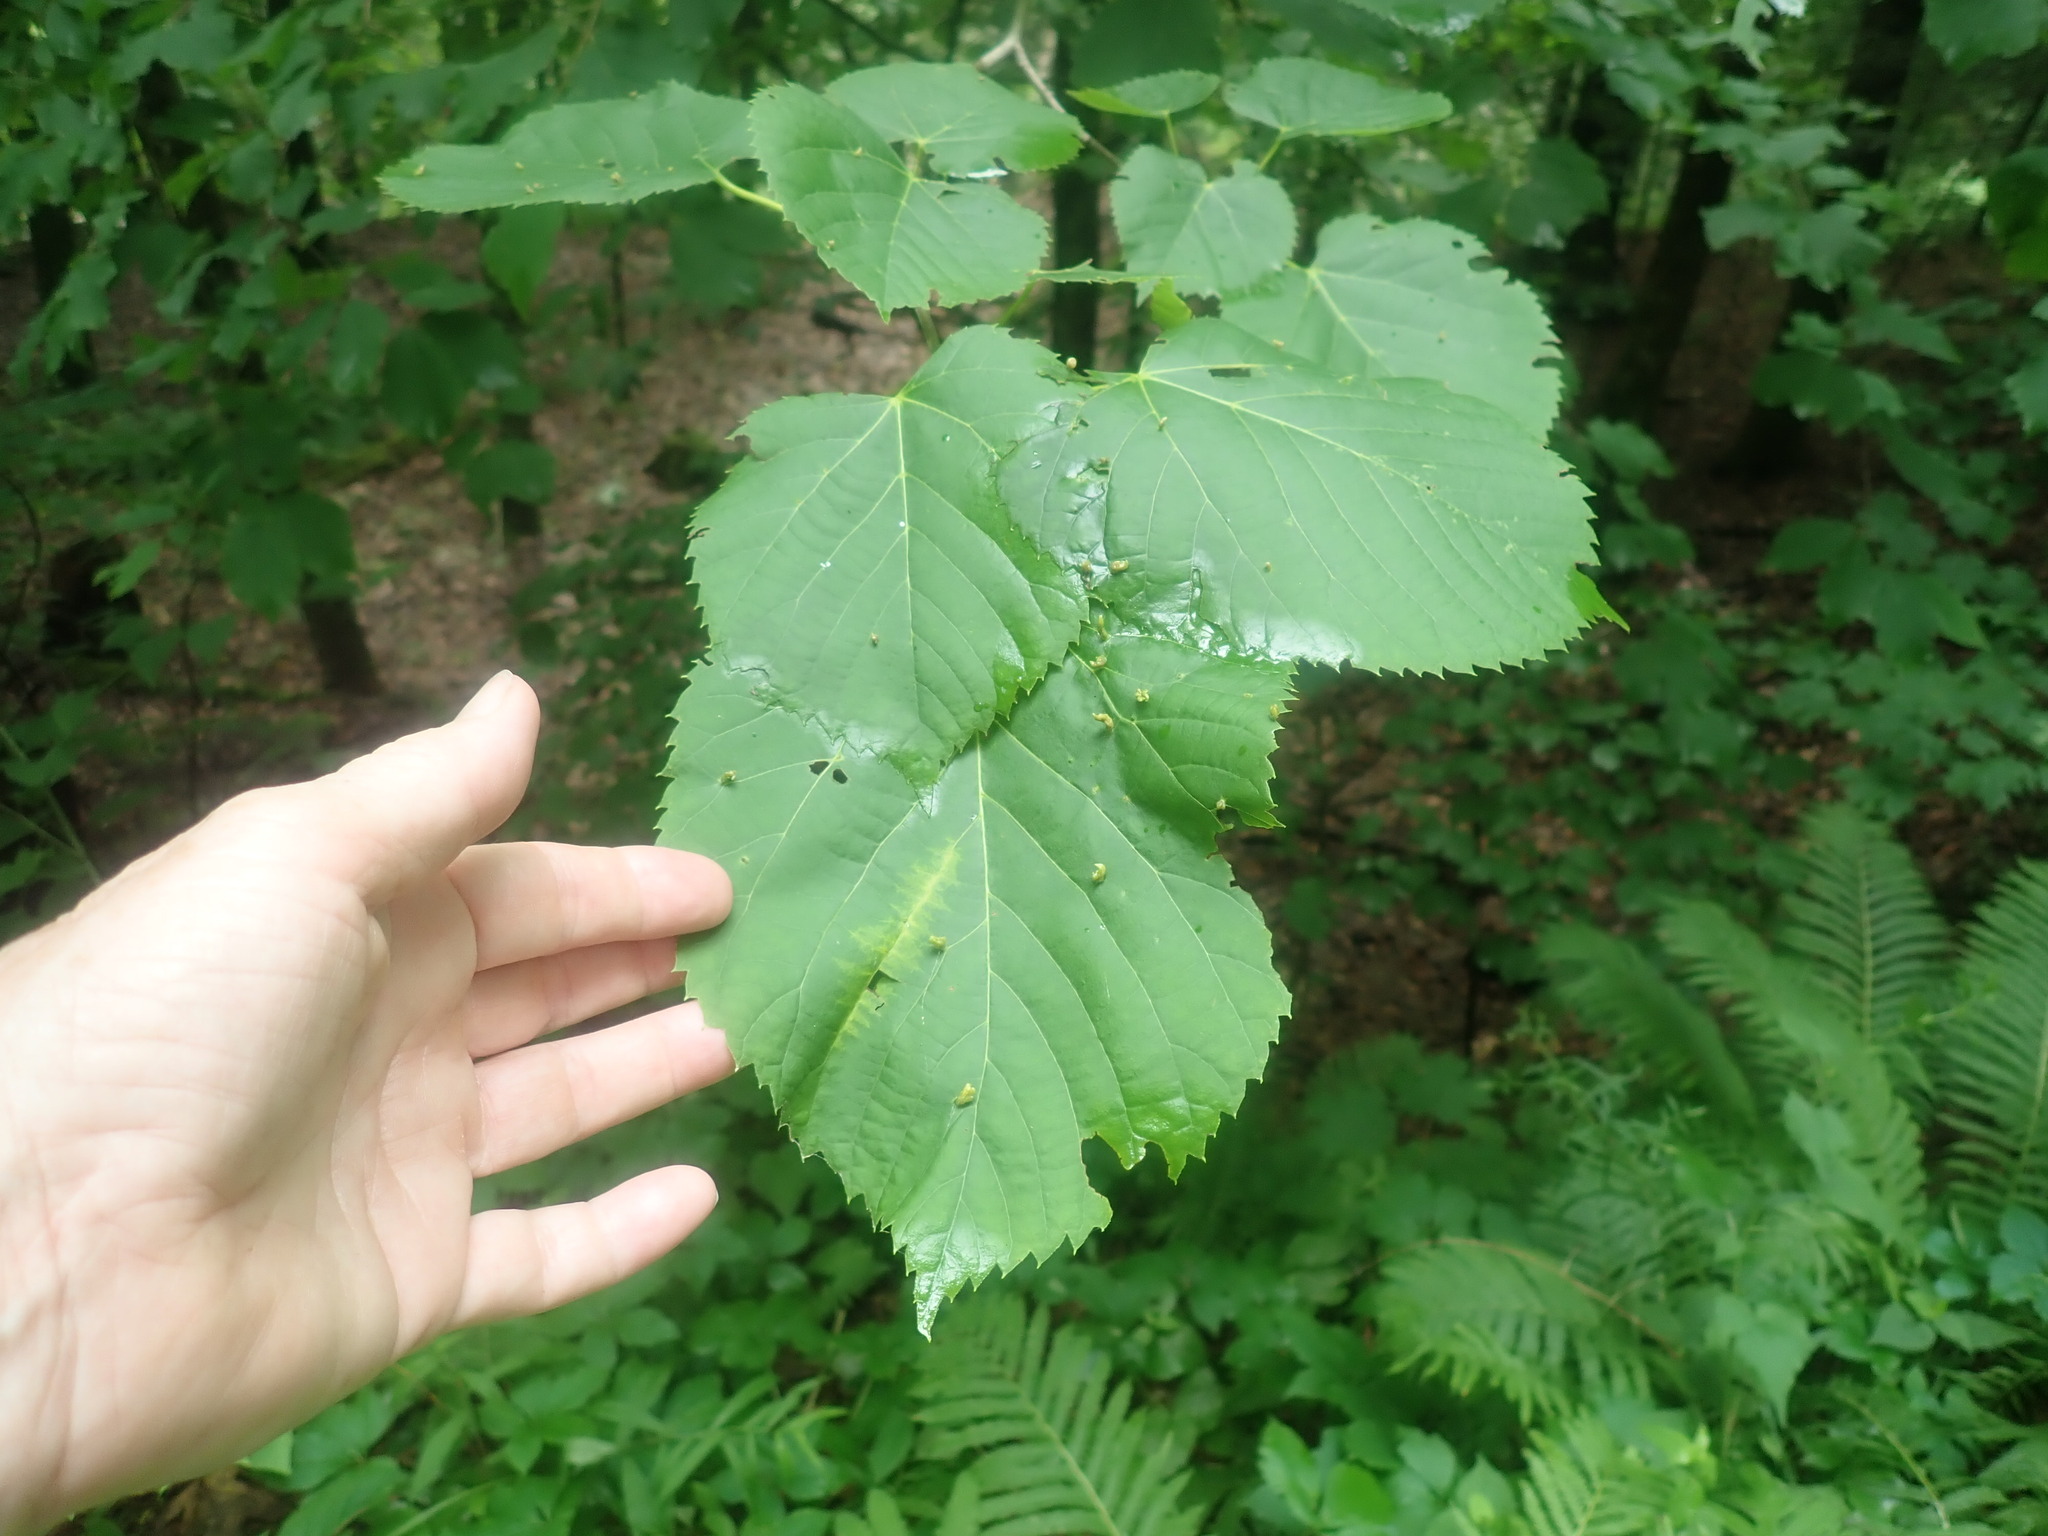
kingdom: Plantae
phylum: Tracheophyta
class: Magnoliopsida
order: Malvales
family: Malvaceae
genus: Tilia
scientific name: Tilia americana
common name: Basswood
